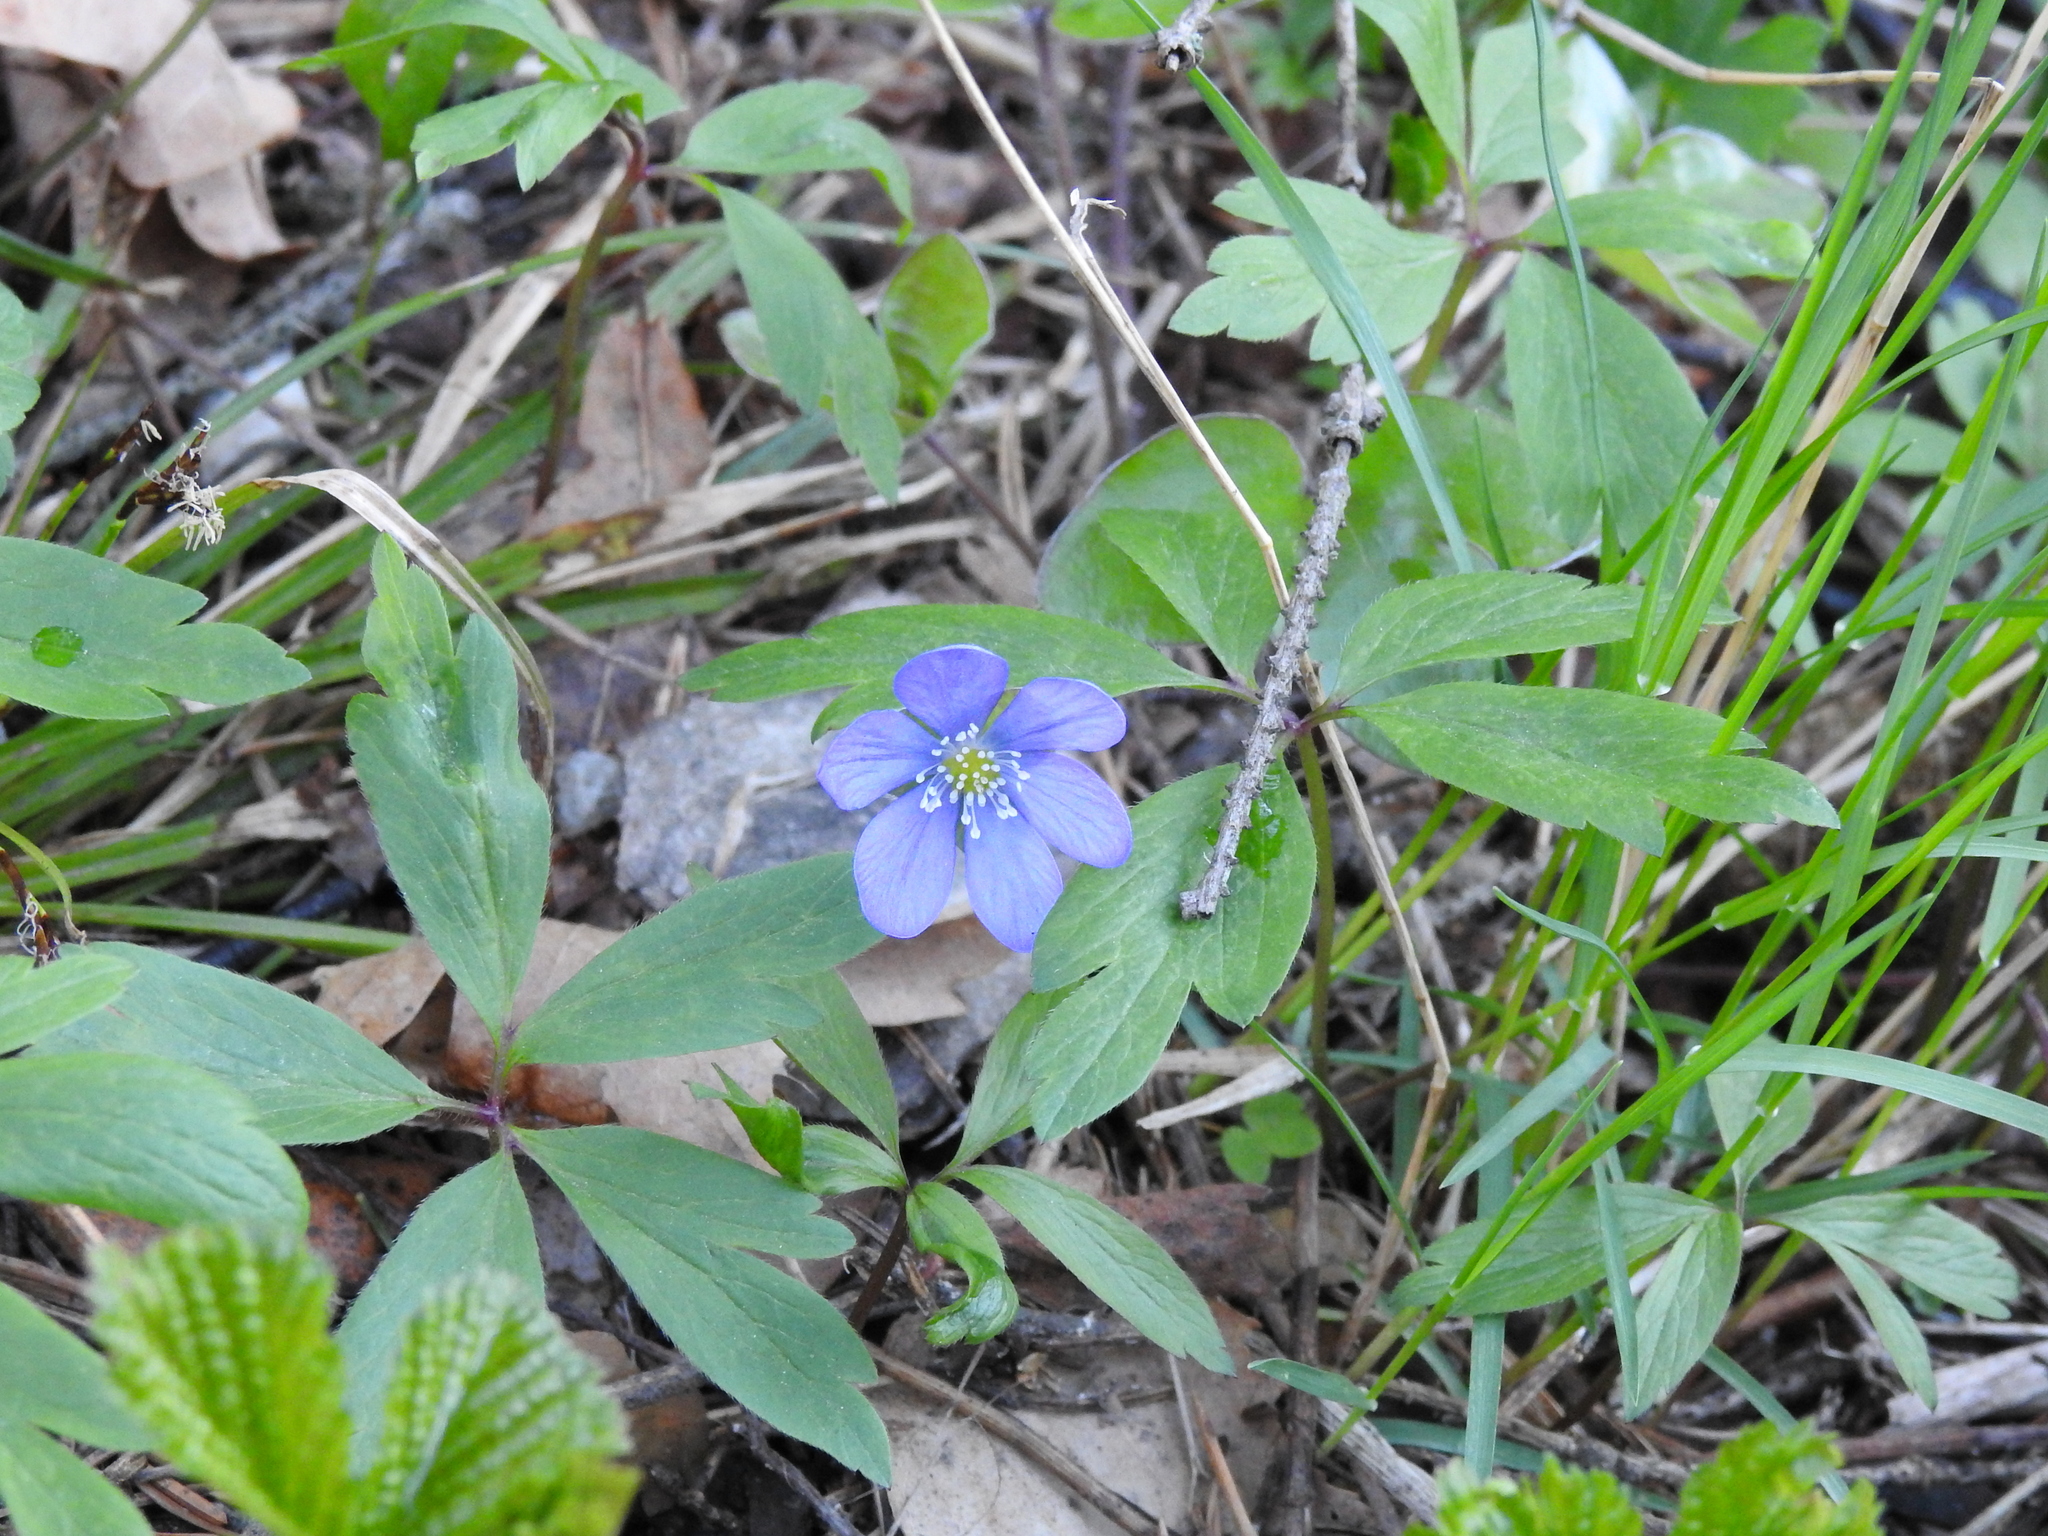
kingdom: Plantae
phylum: Tracheophyta
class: Magnoliopsida
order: Ranunculales
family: Ranunculaceae
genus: Hepatica
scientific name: Hepatica nobilis
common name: Liverleaf
